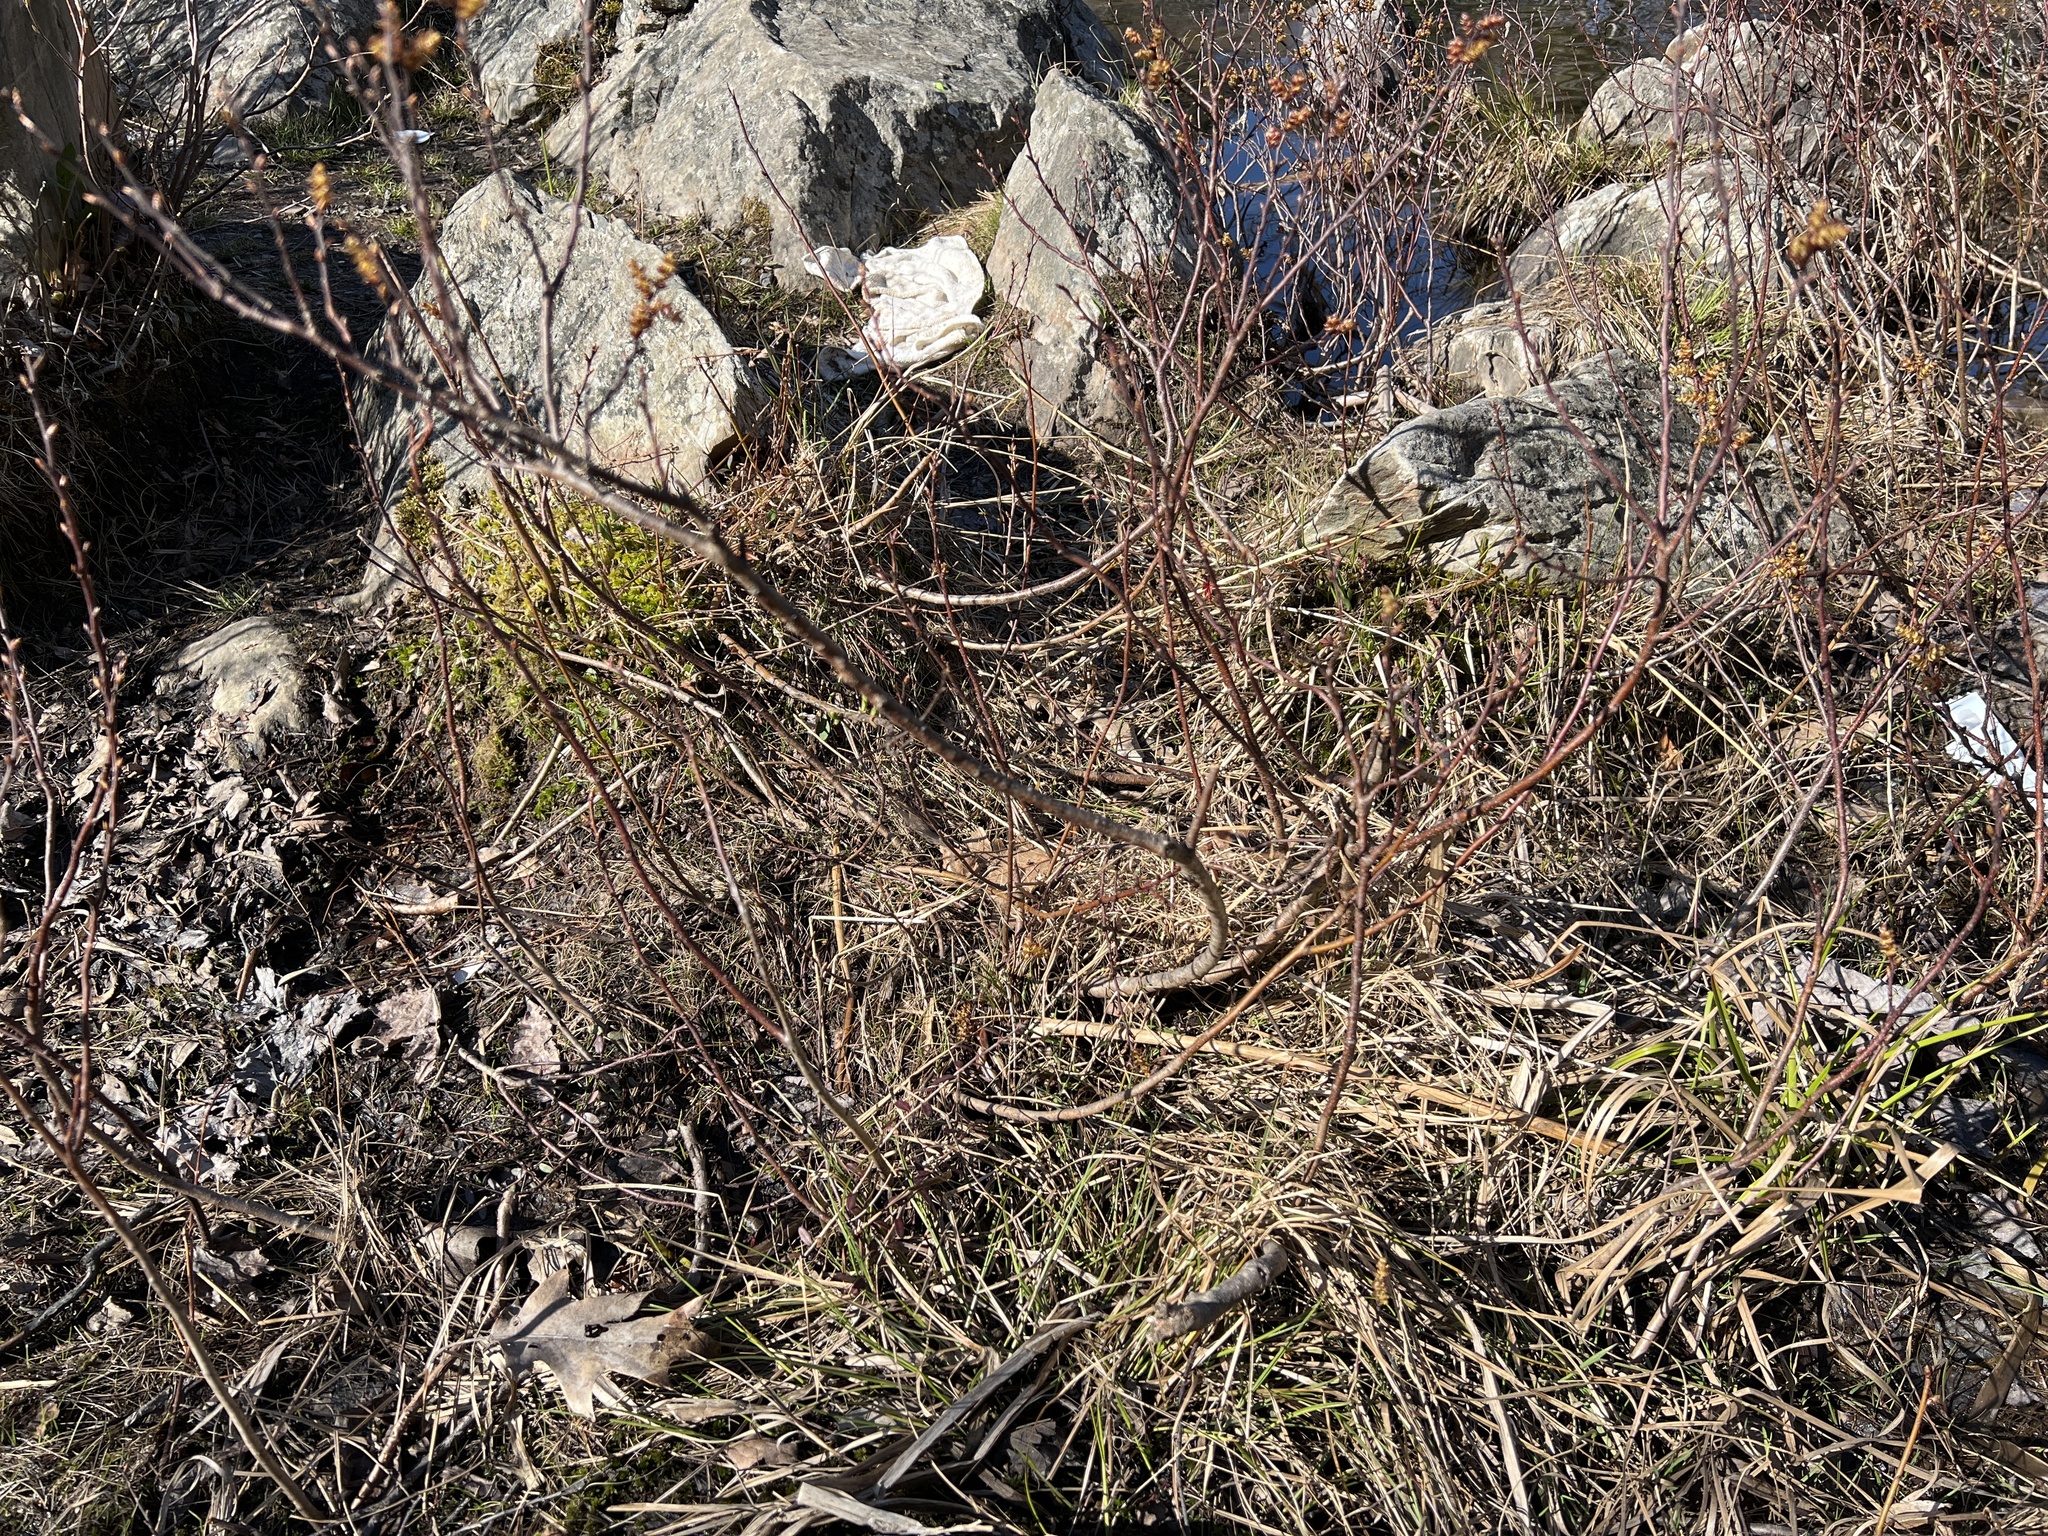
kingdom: Plantae
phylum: Tracheophyta
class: Magnoliopsida
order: Fagales
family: Myricaceae
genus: Myrica
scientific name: Myrica gale
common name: Sweet gale
